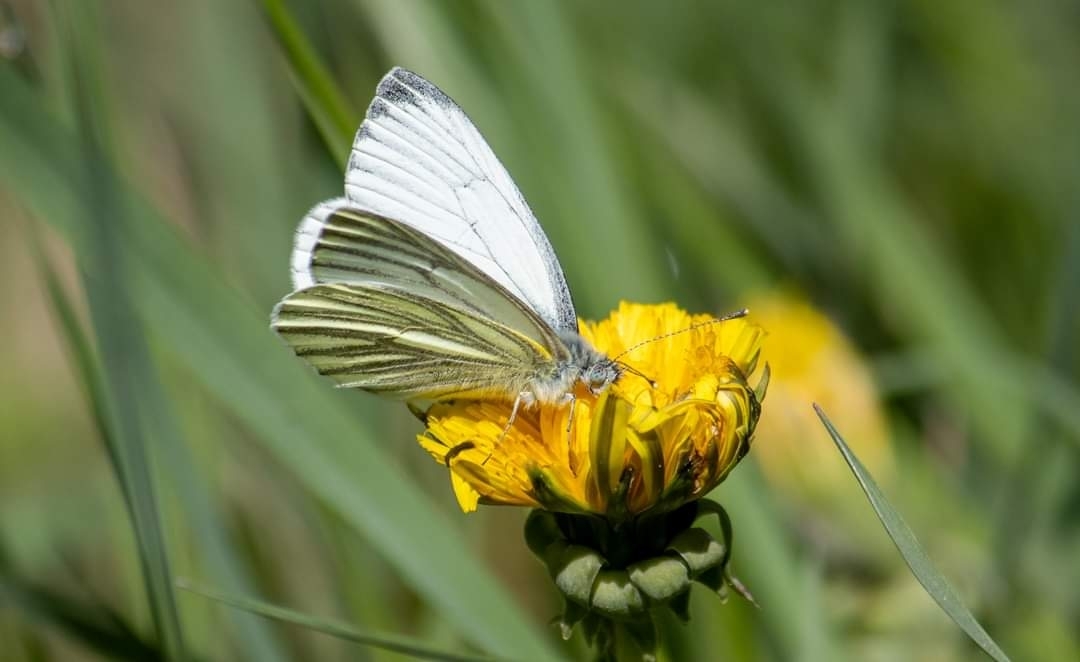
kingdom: Animalia
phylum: Arthropoda
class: Insecta
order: Lepidoptera
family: Pieridae
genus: Pieris
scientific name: Pieris napi
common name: Green-veined white
